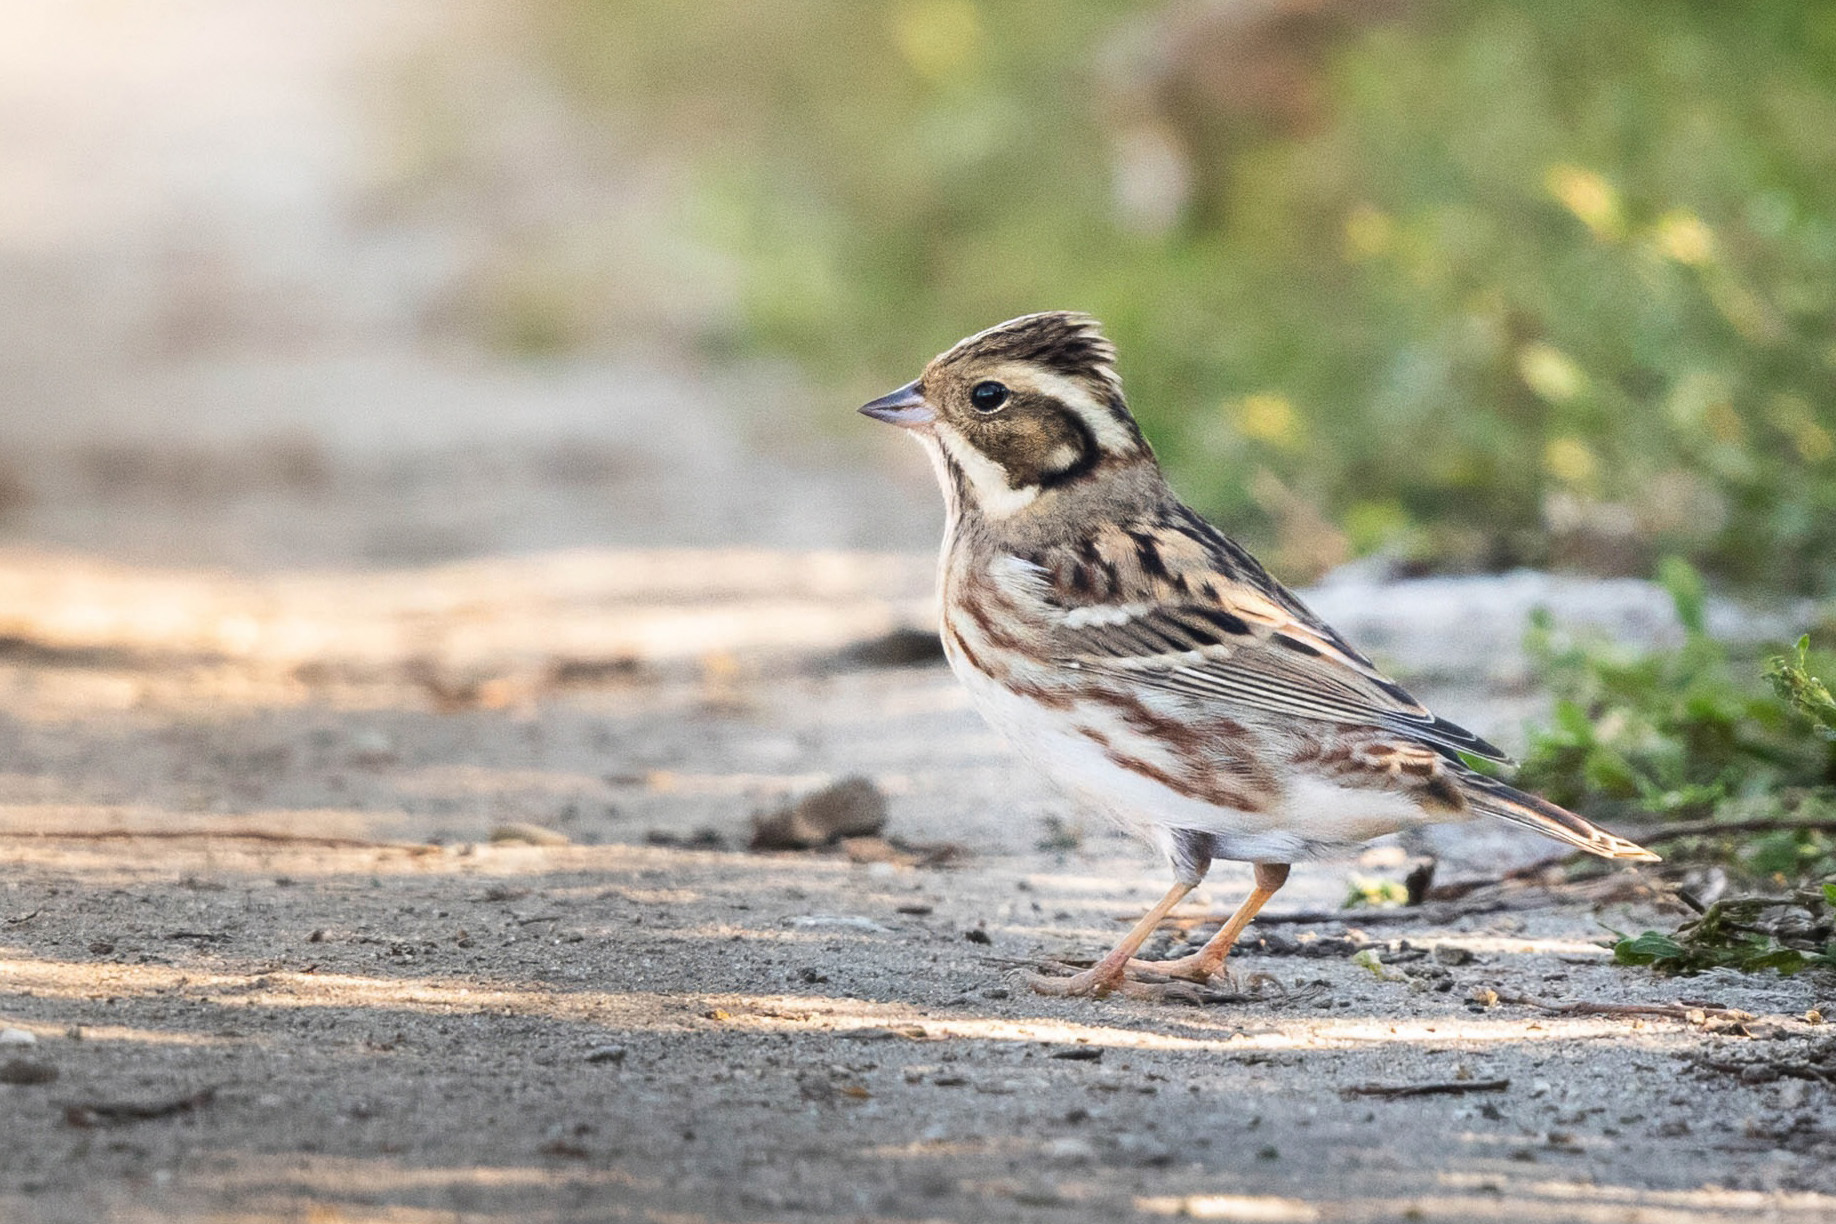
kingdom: Animalia
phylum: Chordata
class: Aves
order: Passeriformes
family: Emberizidae
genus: Emberiza
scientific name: Emberiza rustica
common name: Rustic bunting
